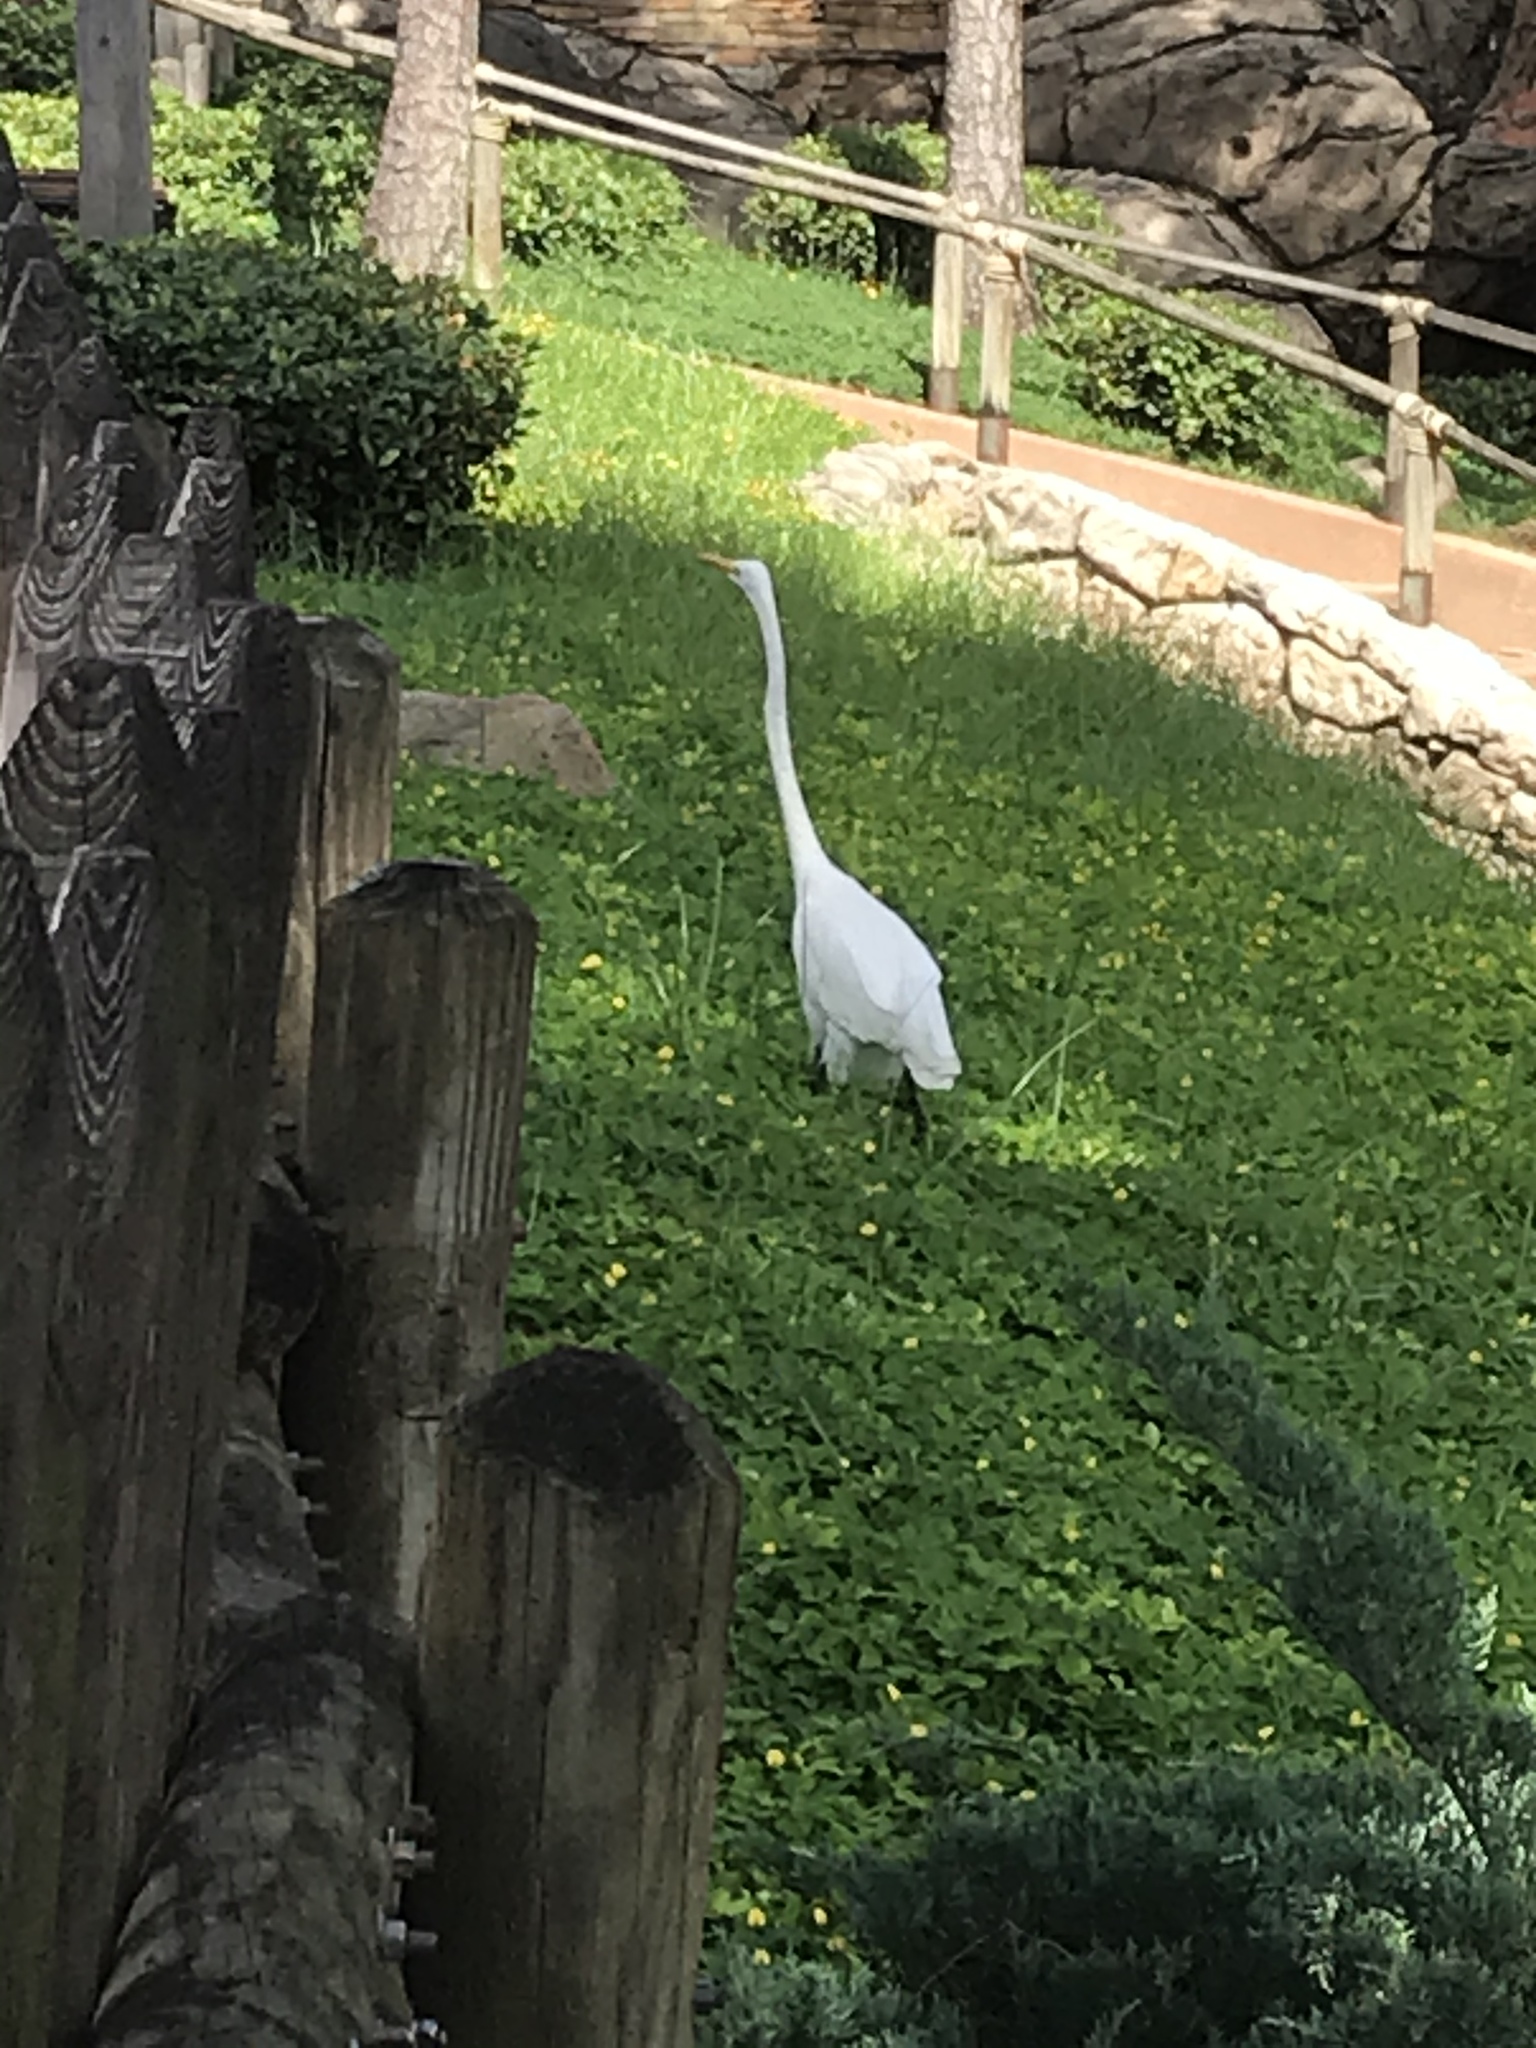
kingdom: Animalia
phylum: Chordata
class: Aves
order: Pelecaniformes
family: Ardeidae
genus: Ardea
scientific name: Ardea alba
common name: Great egret
